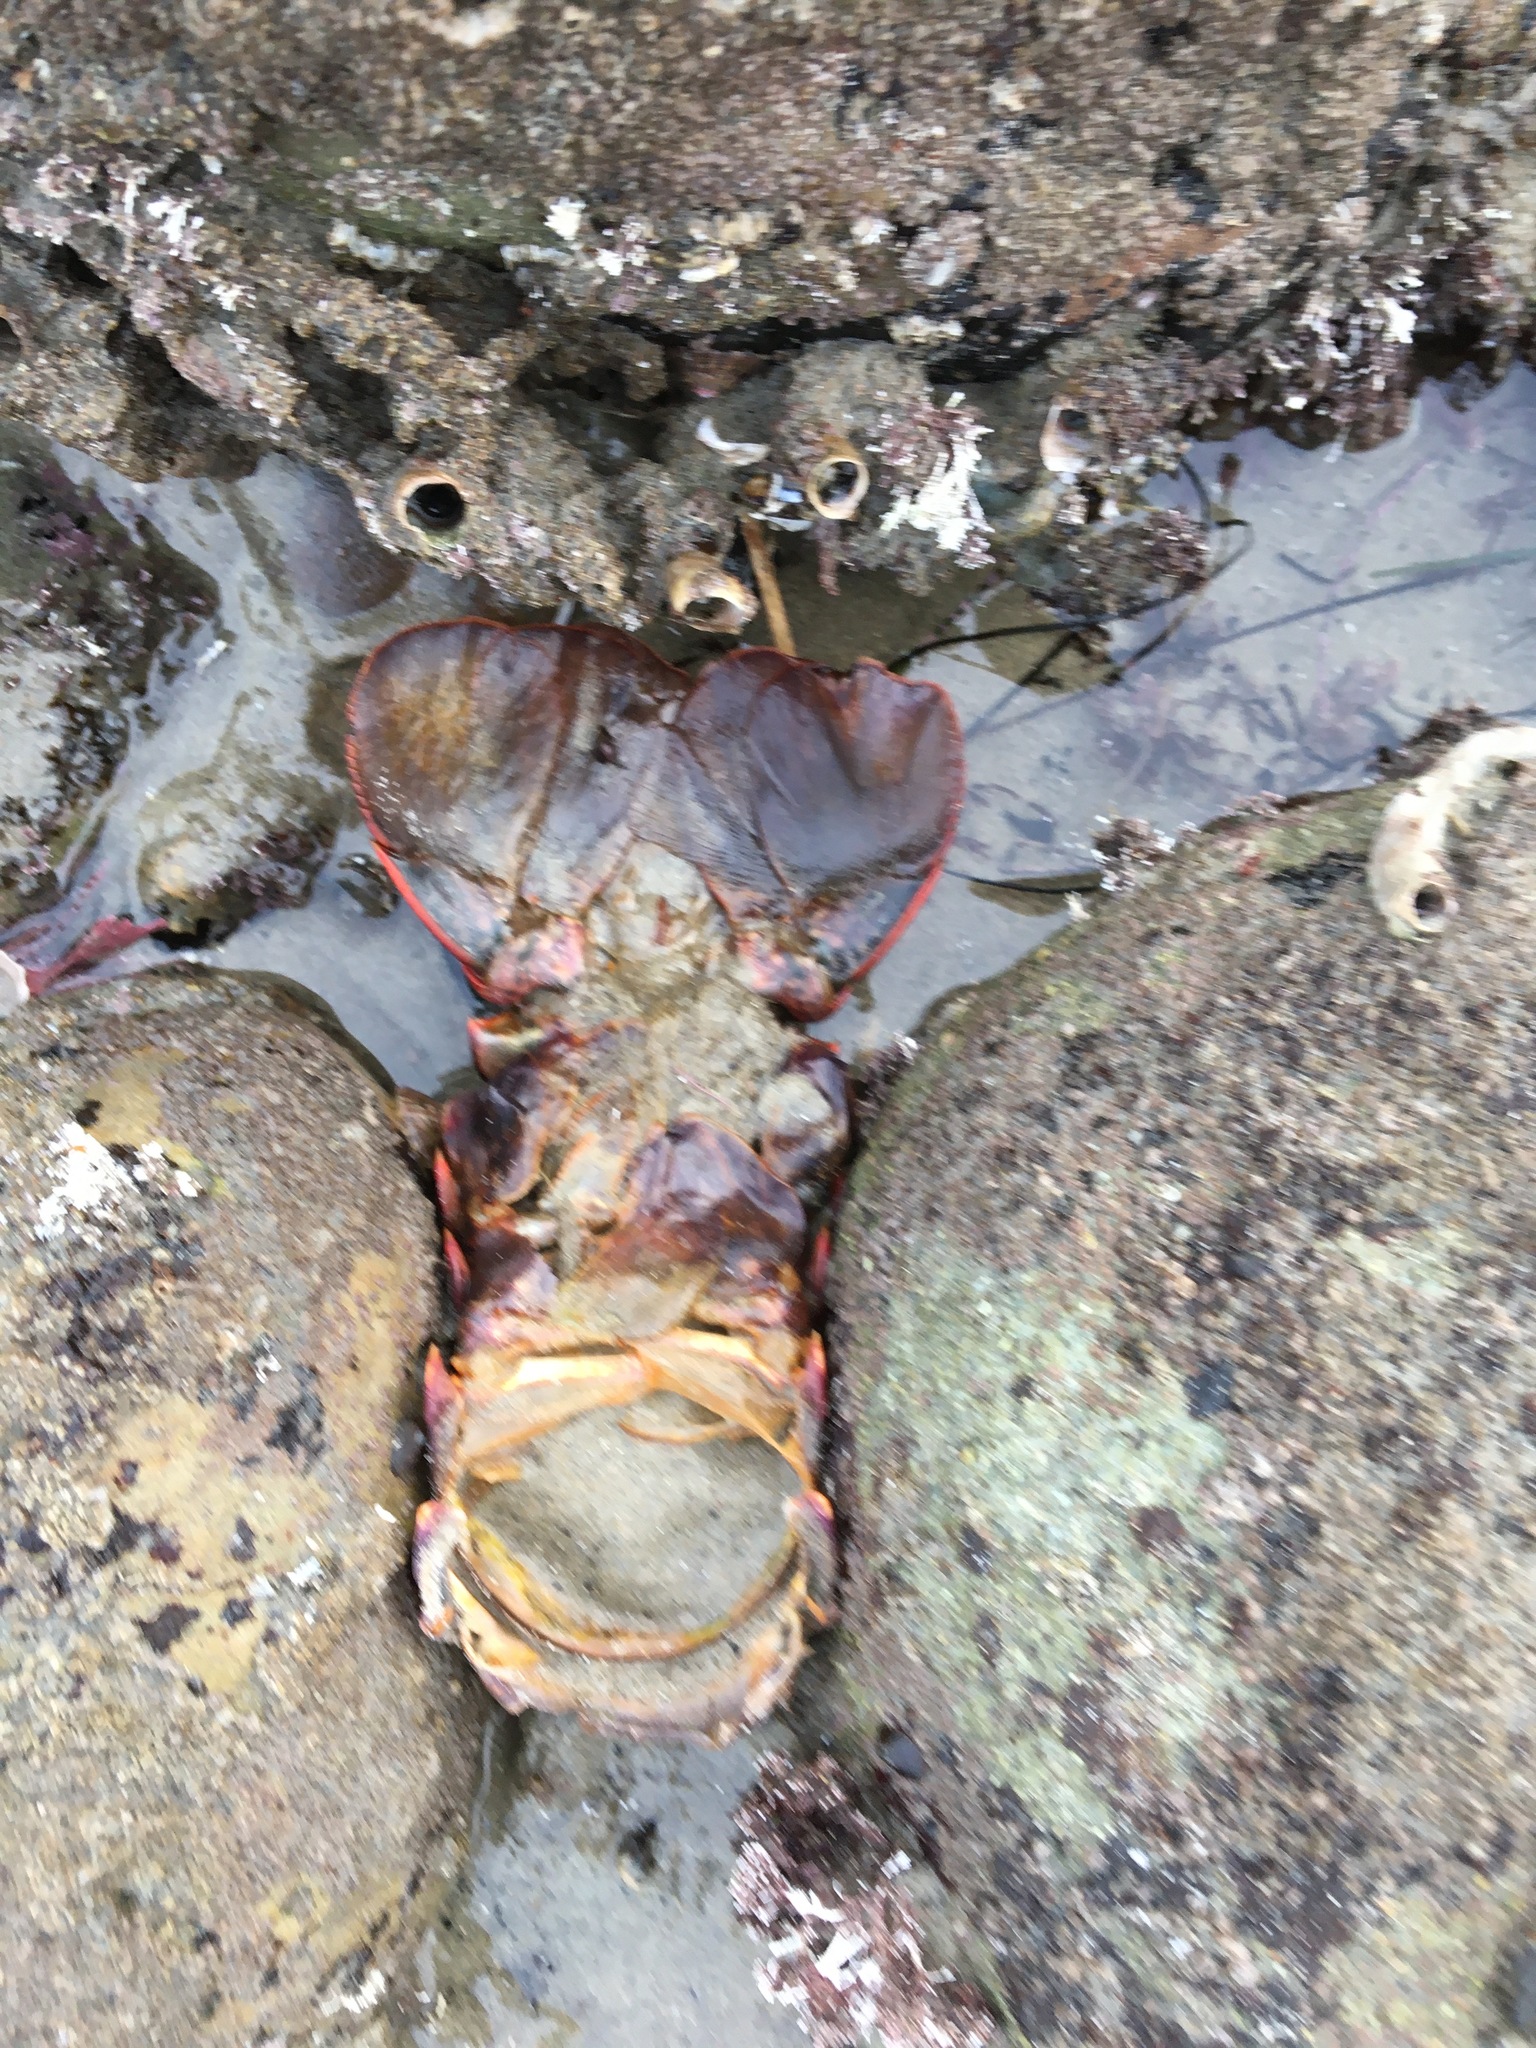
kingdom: Animalia
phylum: Arthropoda
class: Malacostraca
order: Decapoda
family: Palinuridae
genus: Panulirus
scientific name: Panulirus interruptus
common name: California spiny lobster
